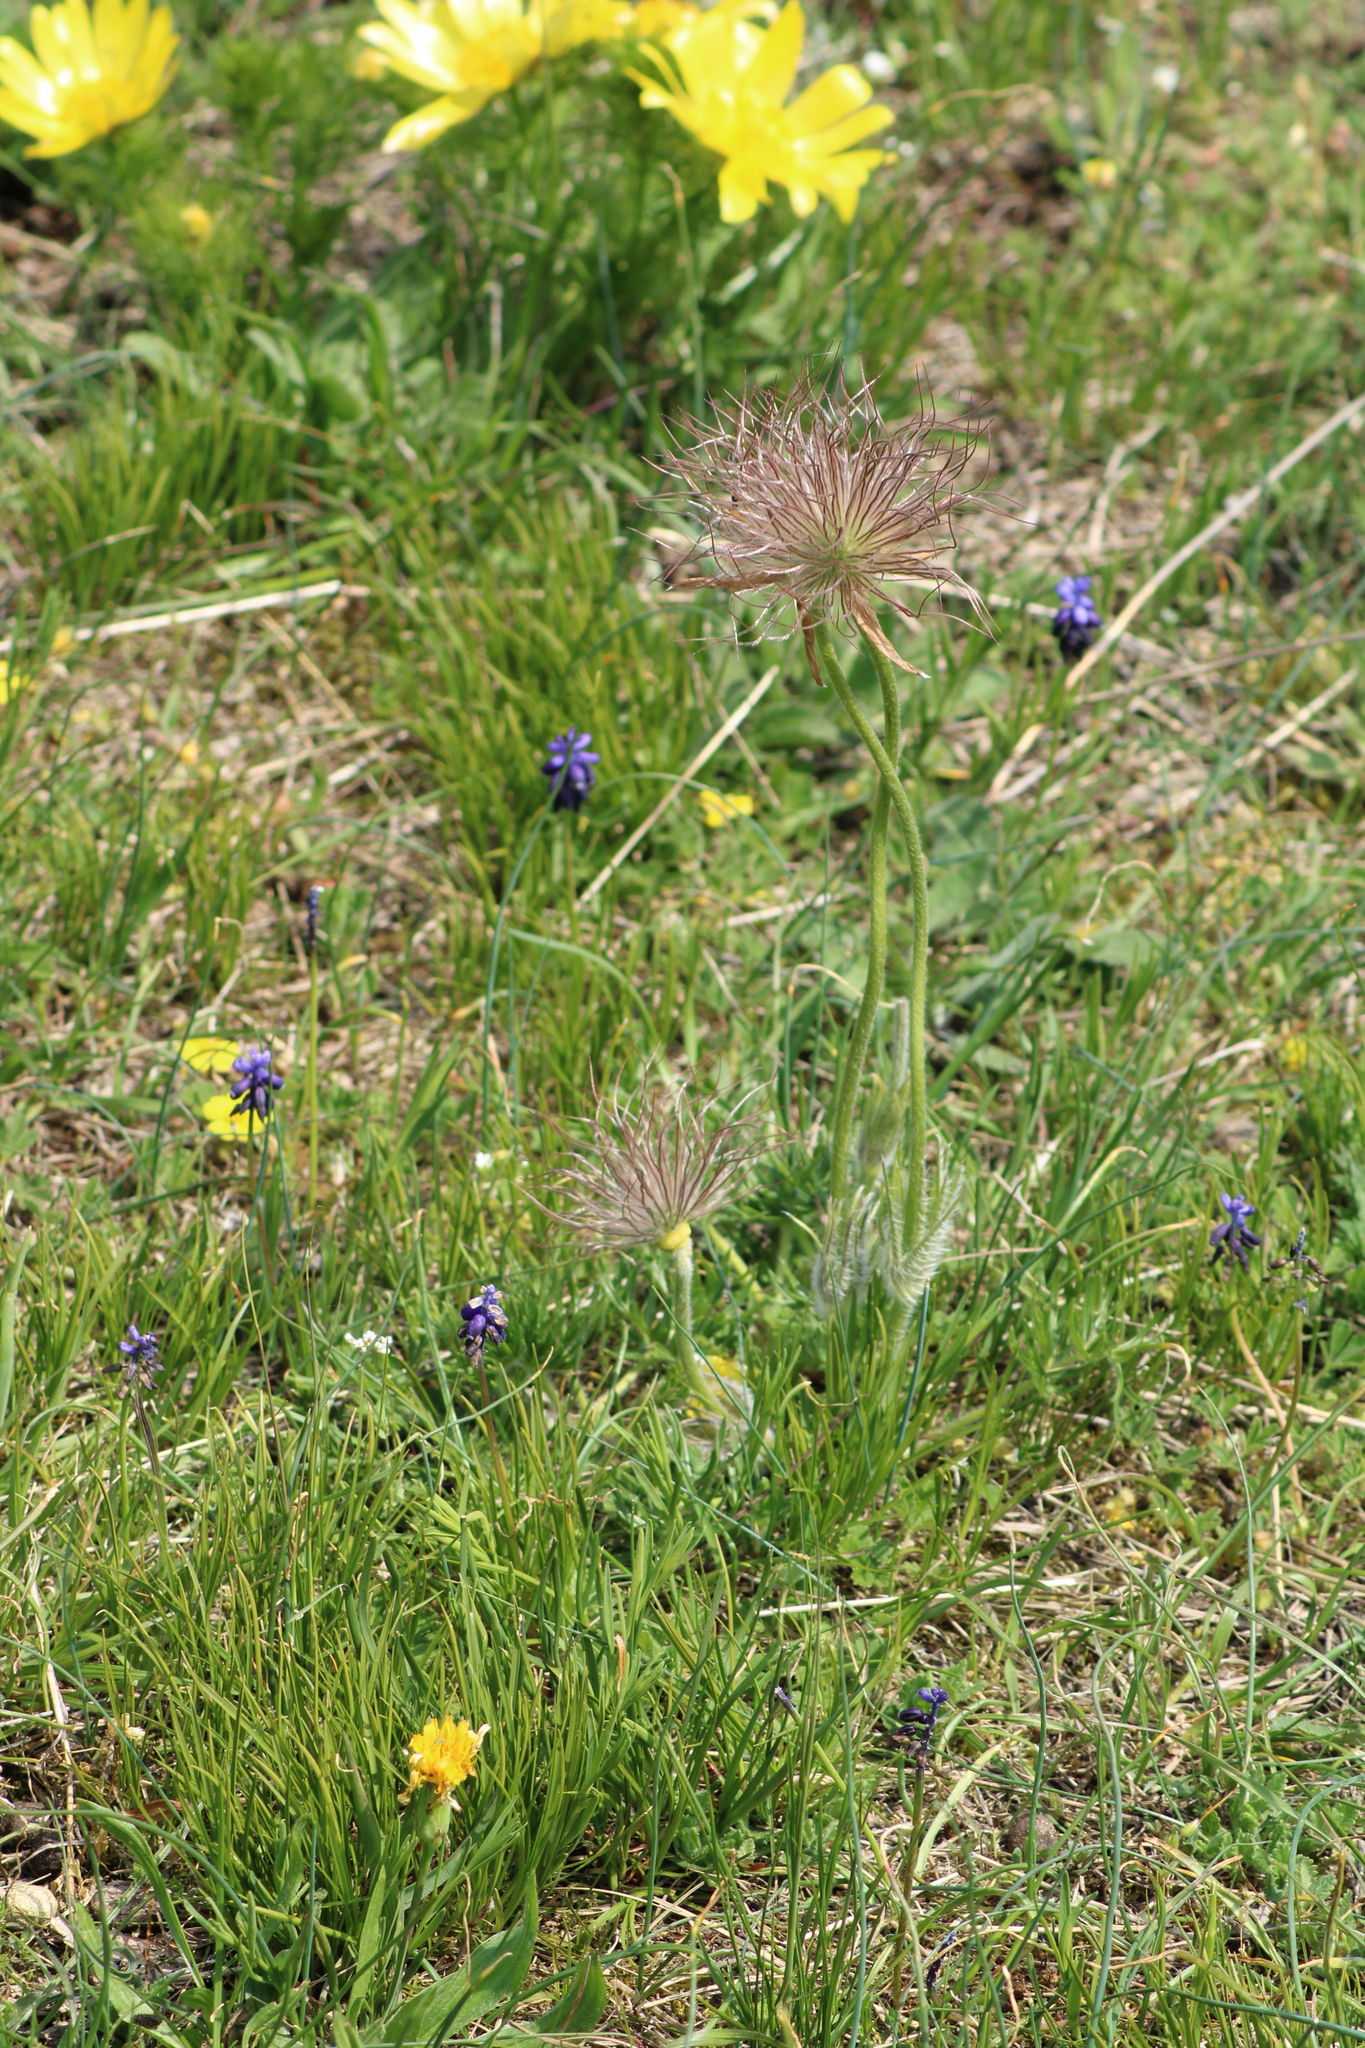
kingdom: Plantae
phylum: Tracheophyta
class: Magnoliopsida
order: Ranunculales
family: Ranunculaceae
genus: Pulsatilla
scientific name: Pulsatilla pratensis
